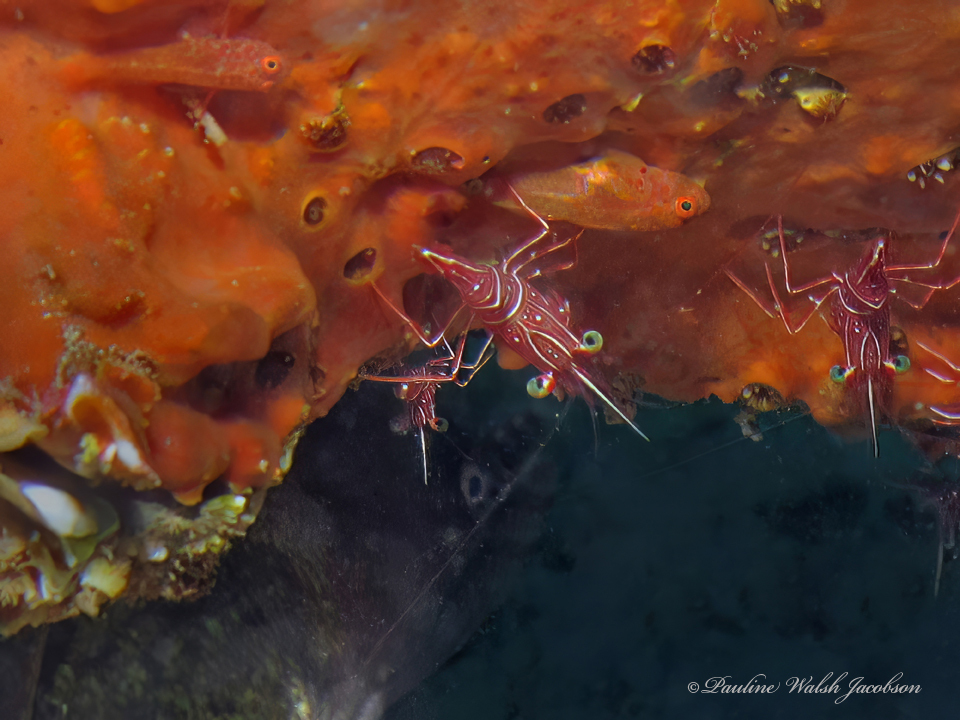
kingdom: Animalia
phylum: Arthropoda
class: Malacostraca
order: Decapoda
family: Rhynchocinetidae
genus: Rhynchocinetes
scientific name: Rhynchocinetes durbanensis
